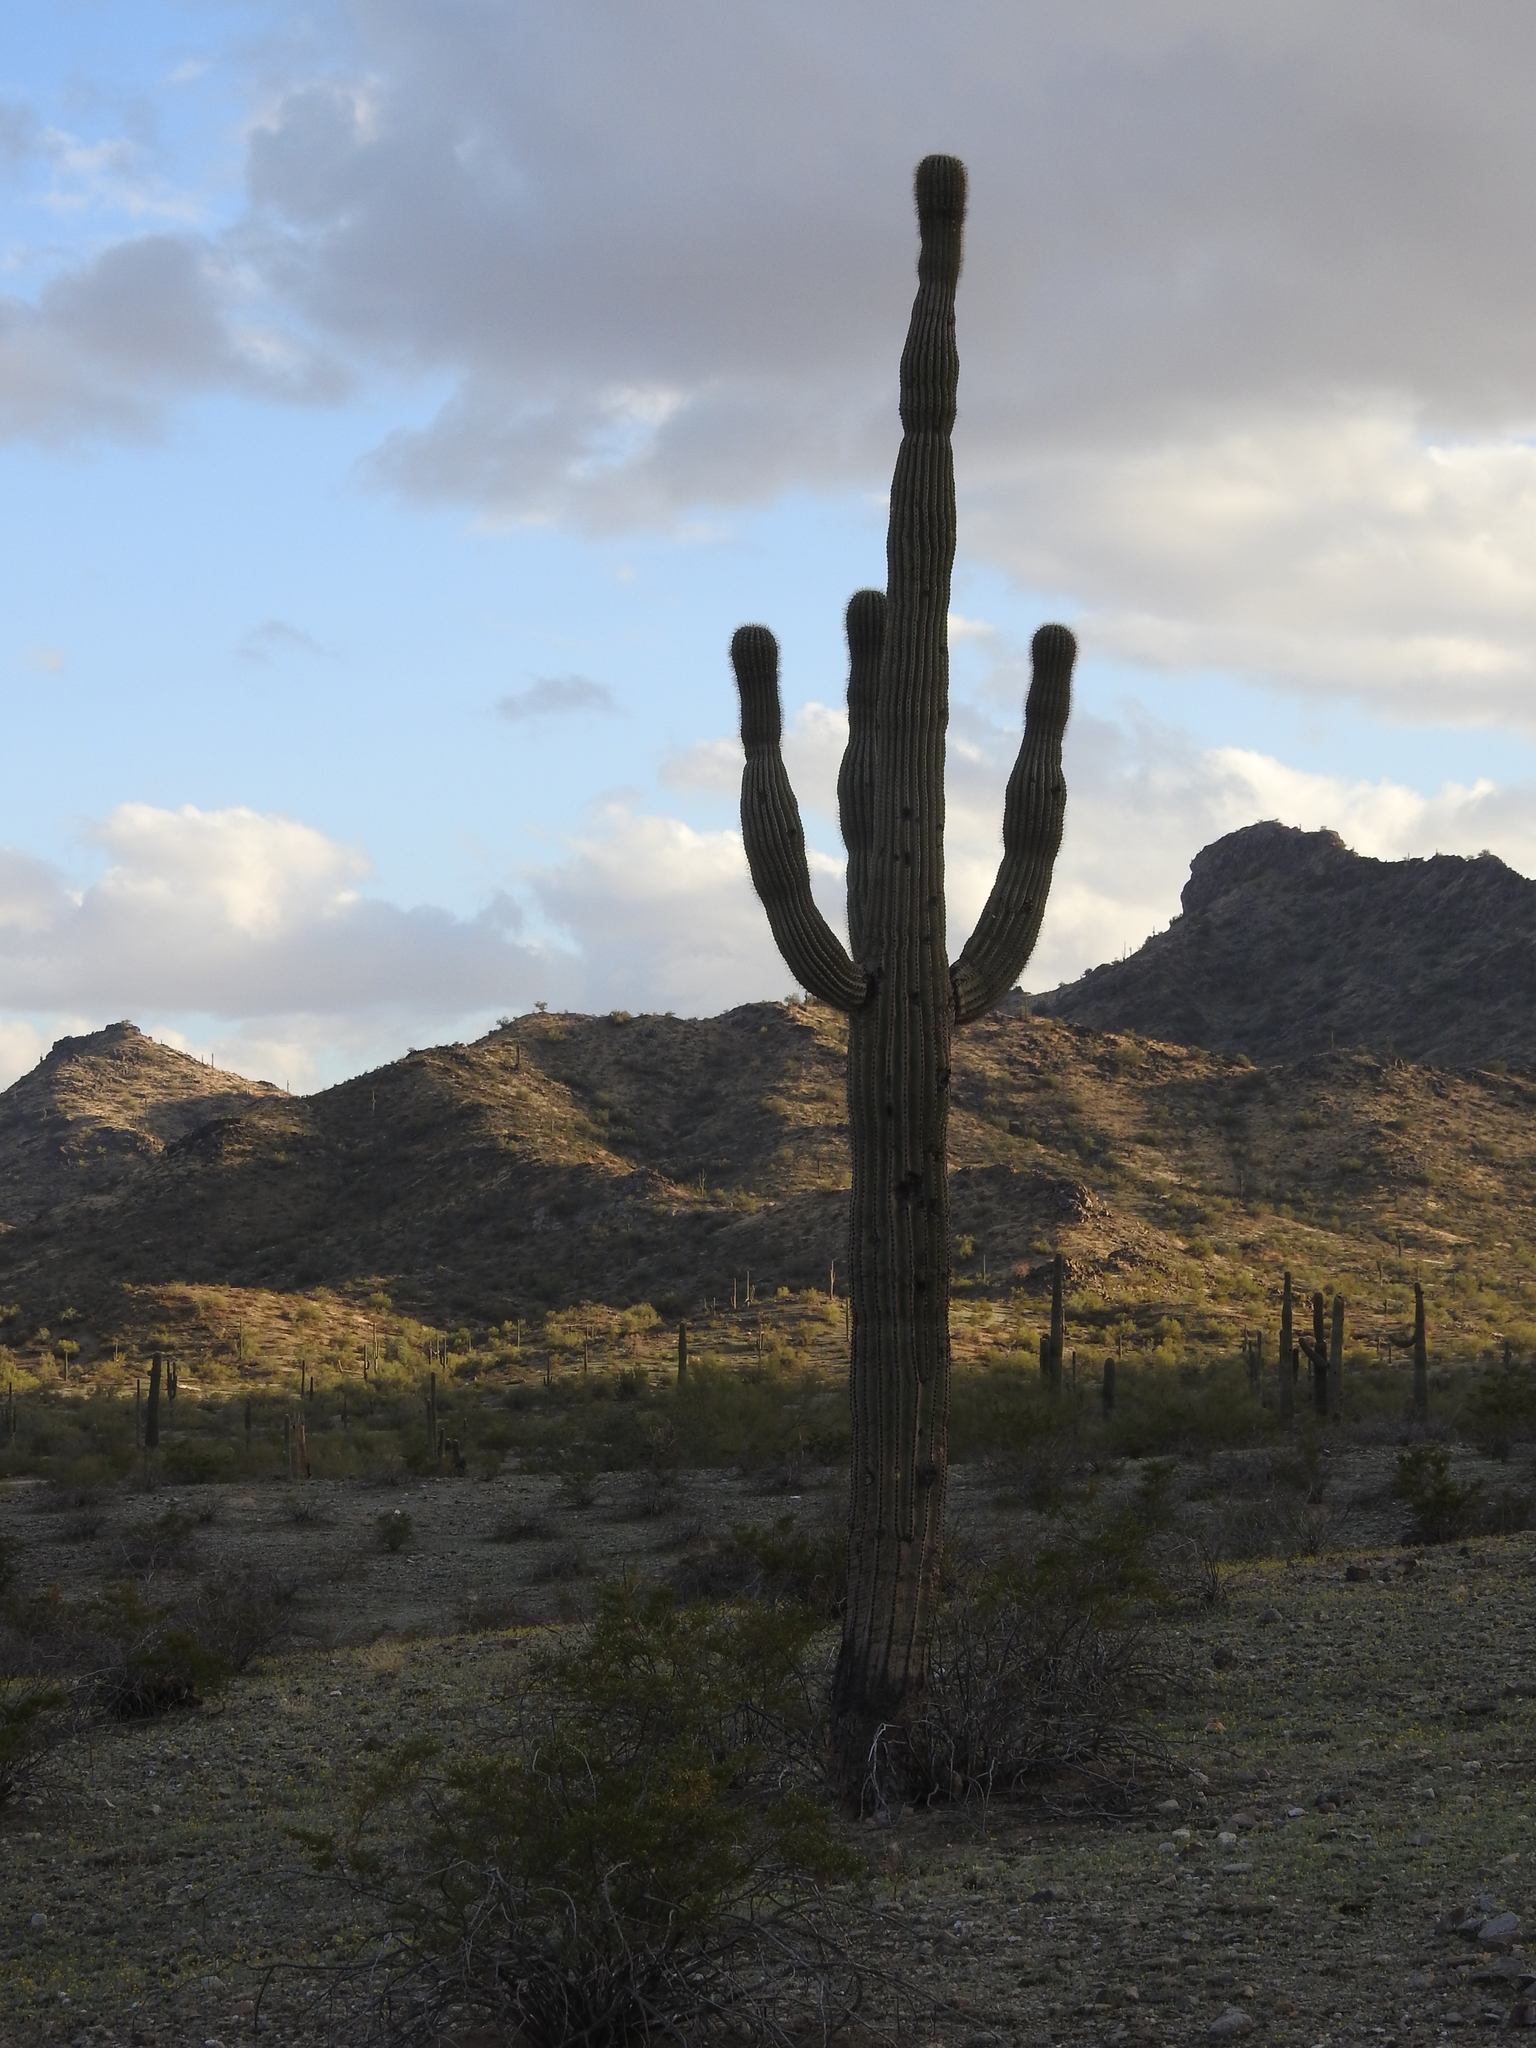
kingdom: Plantae
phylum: Tracheophyta
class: Magnoliopsida
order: Caryophyllales
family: Cactaceae
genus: Carnegiea
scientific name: Carnegiea gigantea
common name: Saguaro
